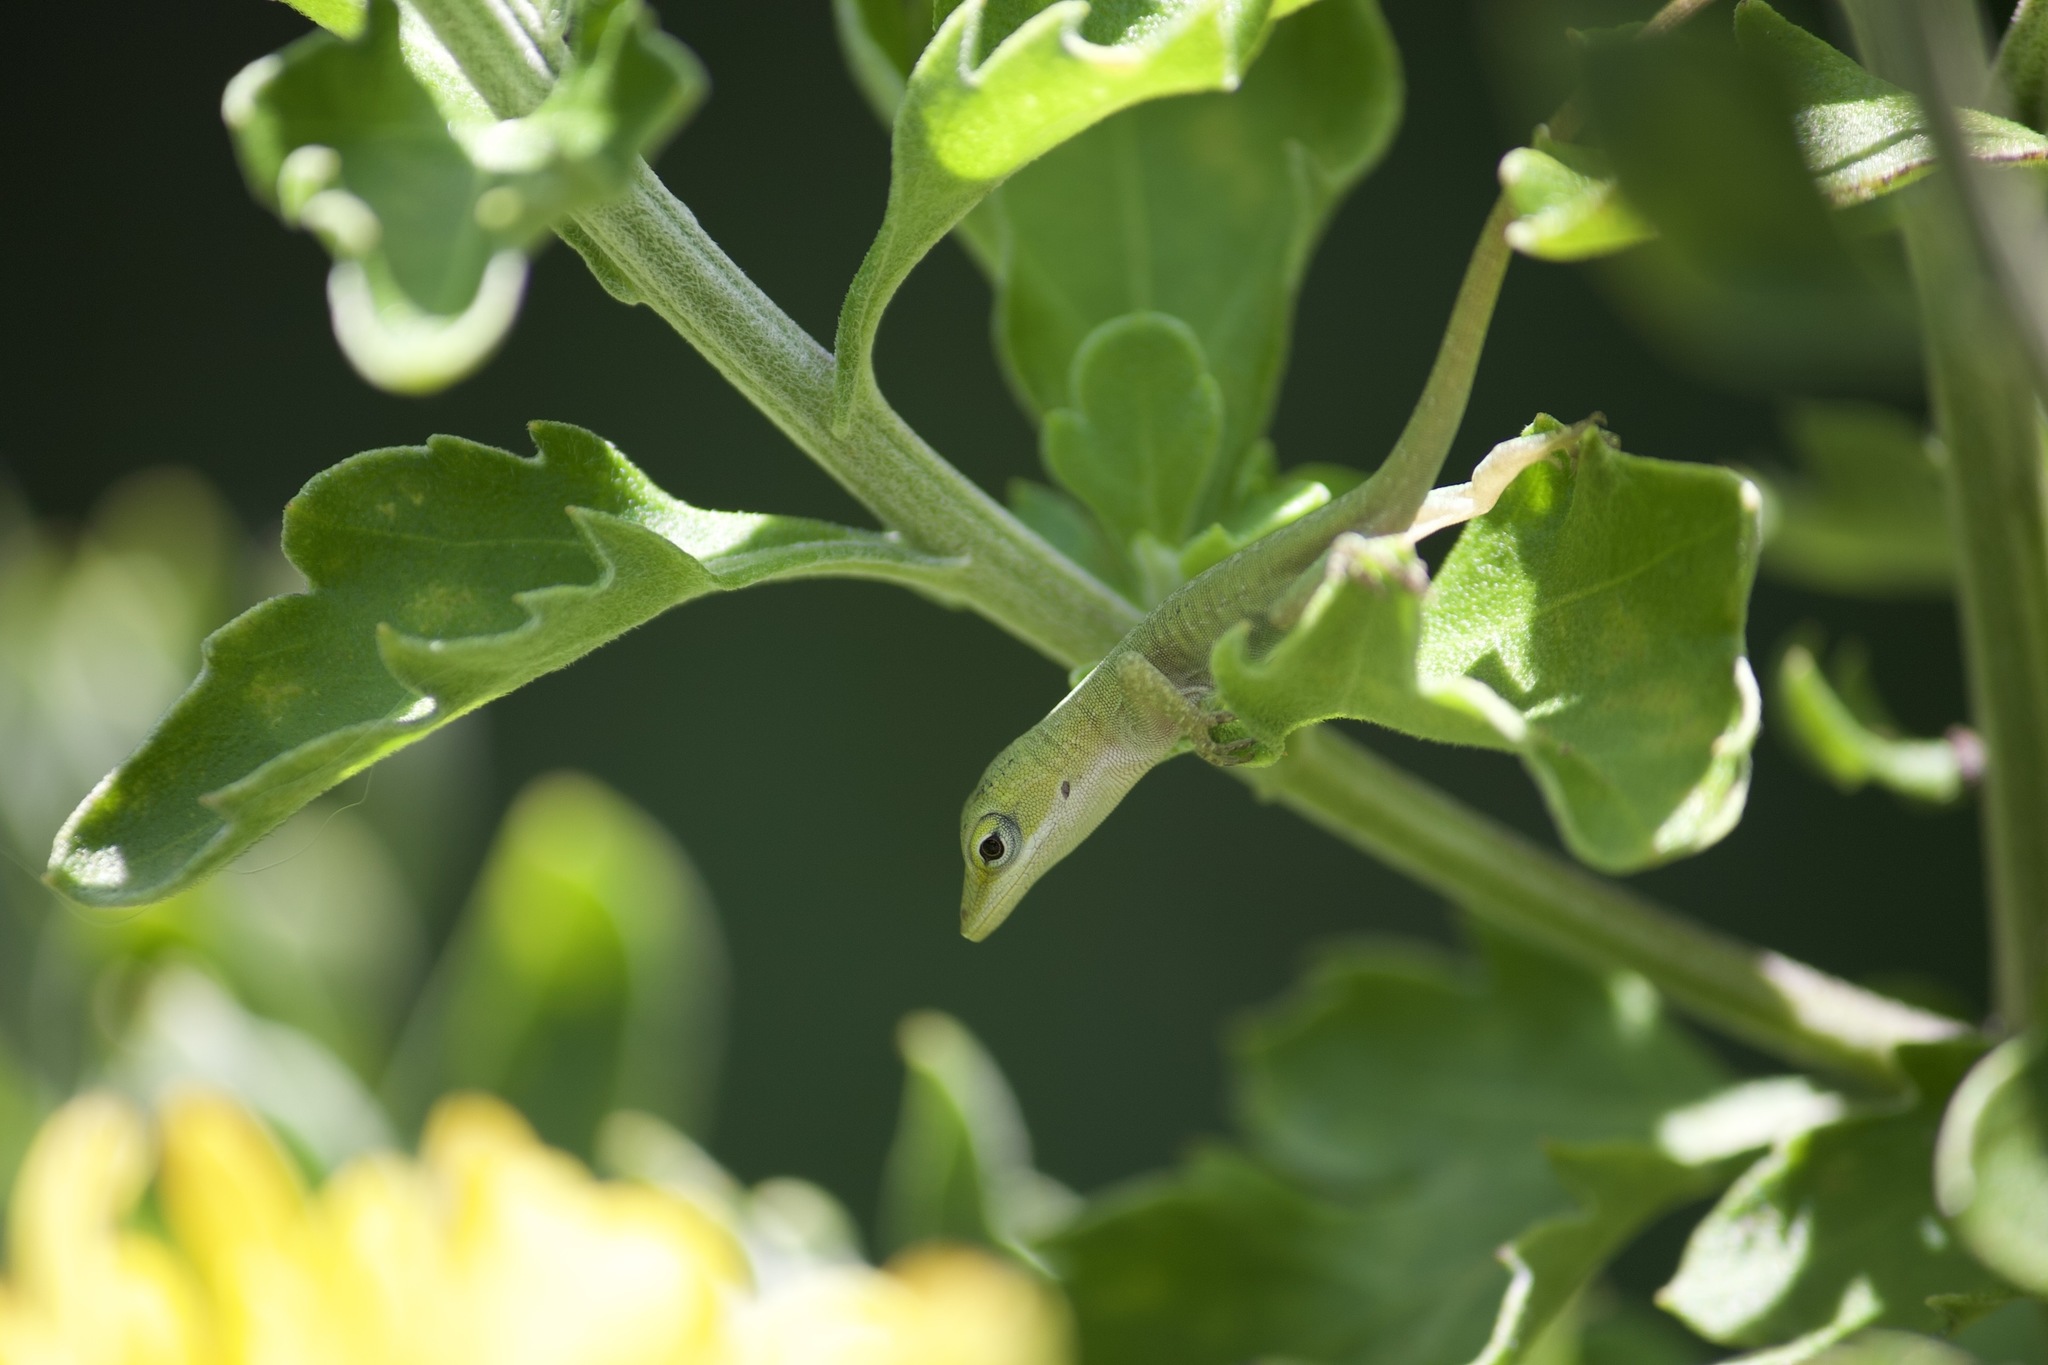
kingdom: Animalia
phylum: Chordata
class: Squamata
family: Dactyloidae
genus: Anolis
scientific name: Anolis carolinensis
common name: Green anole
